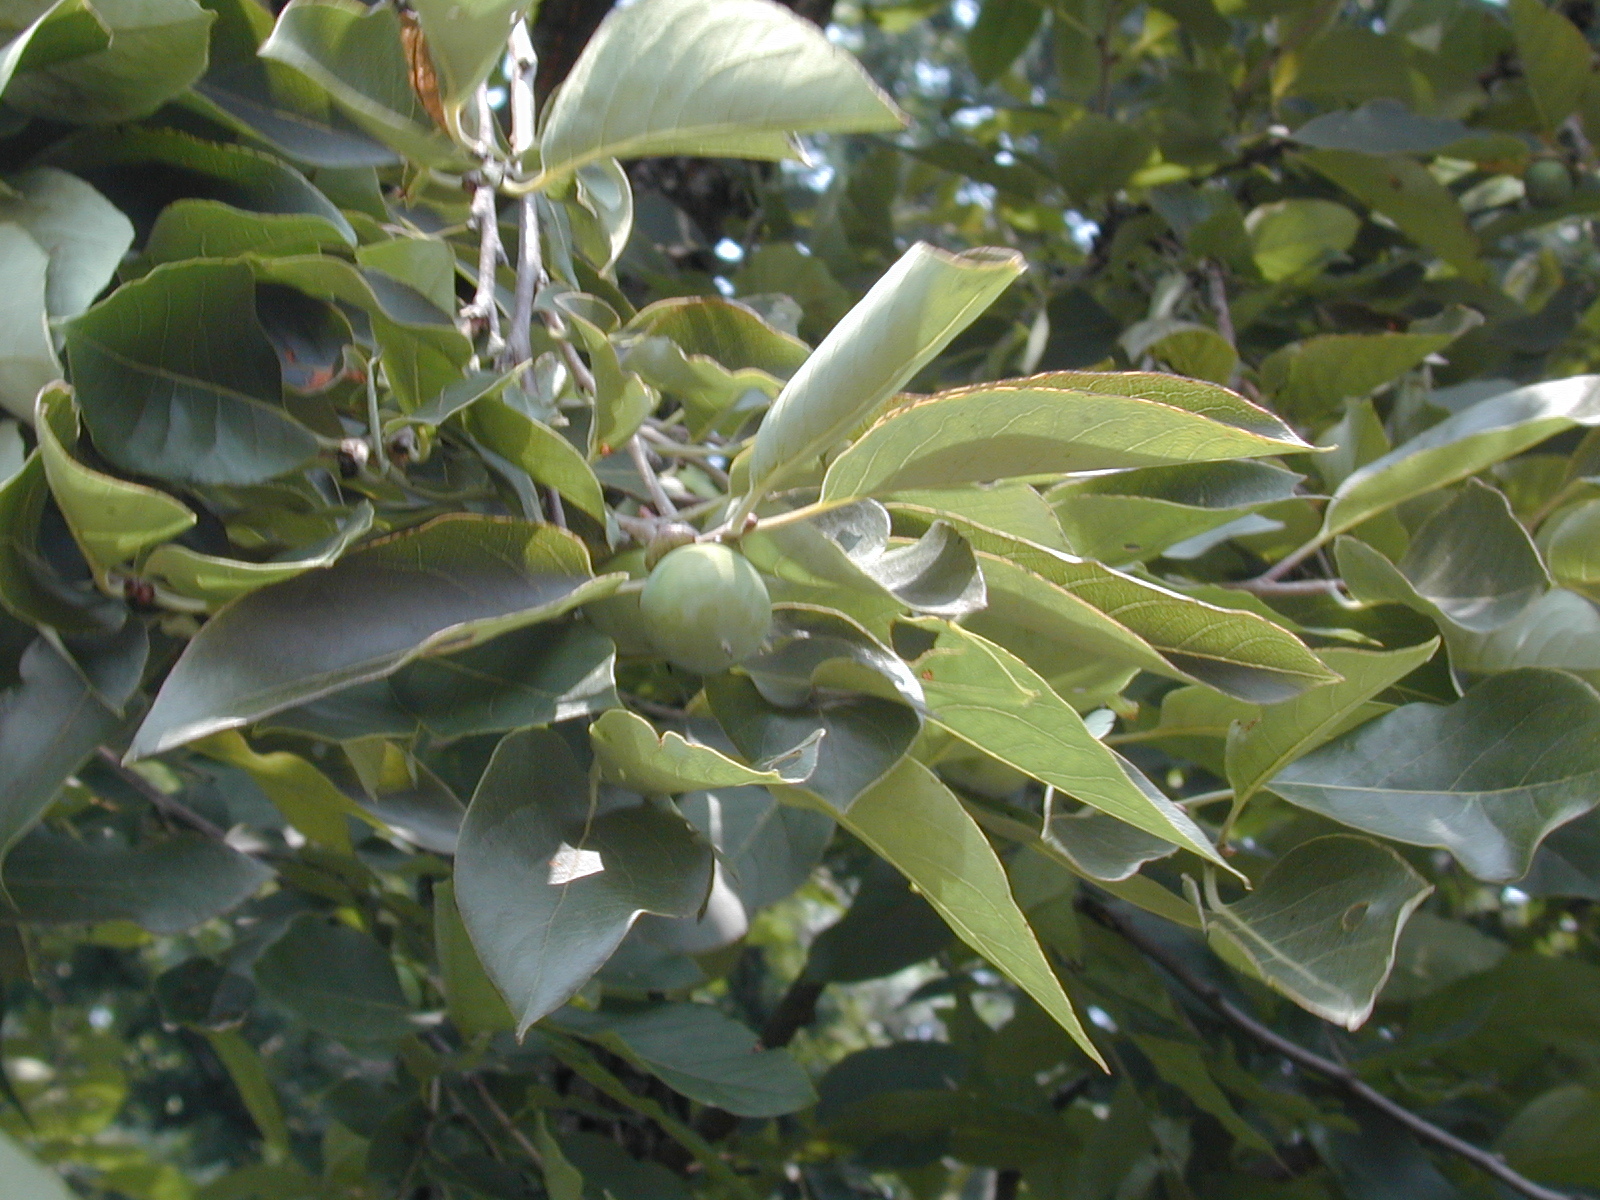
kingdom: Plantae
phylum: Tracheophyta
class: Magnoliopsida
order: Ericales
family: Ebenaceae
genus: Diospyros
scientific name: Diospyros virginiana
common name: Persimmon
